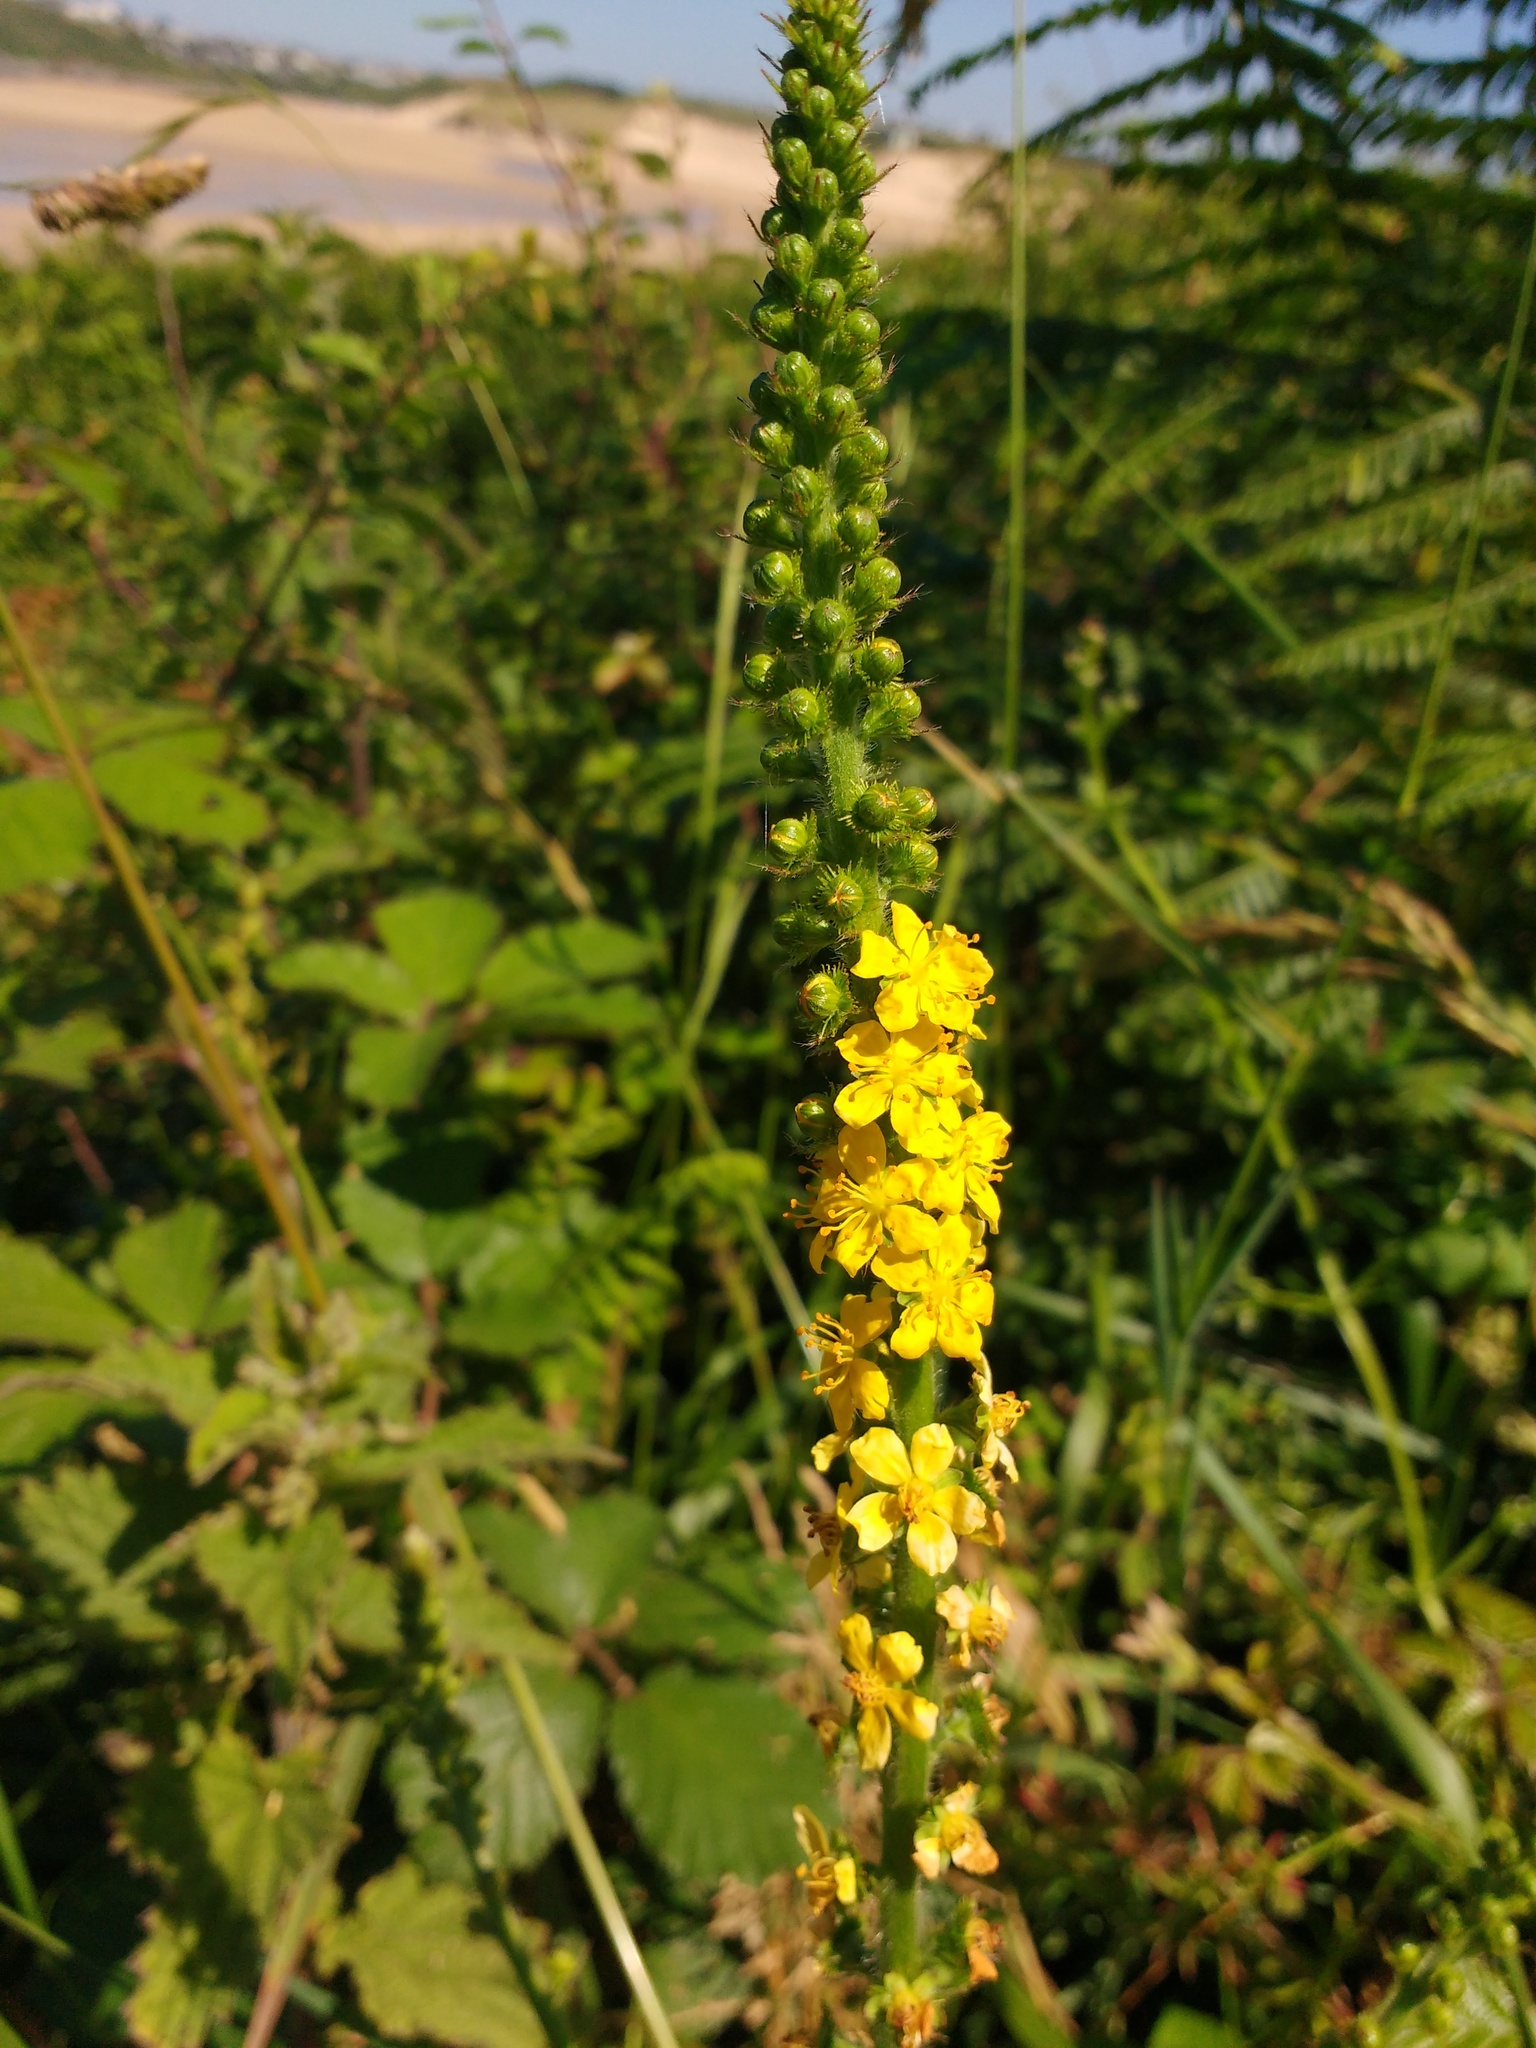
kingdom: Plantae
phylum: Tracheophyta
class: Magnoliopsida
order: Rosales
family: Rosaceae
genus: Agrimonia
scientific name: Agrimonia eupatoria
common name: Agrimony
